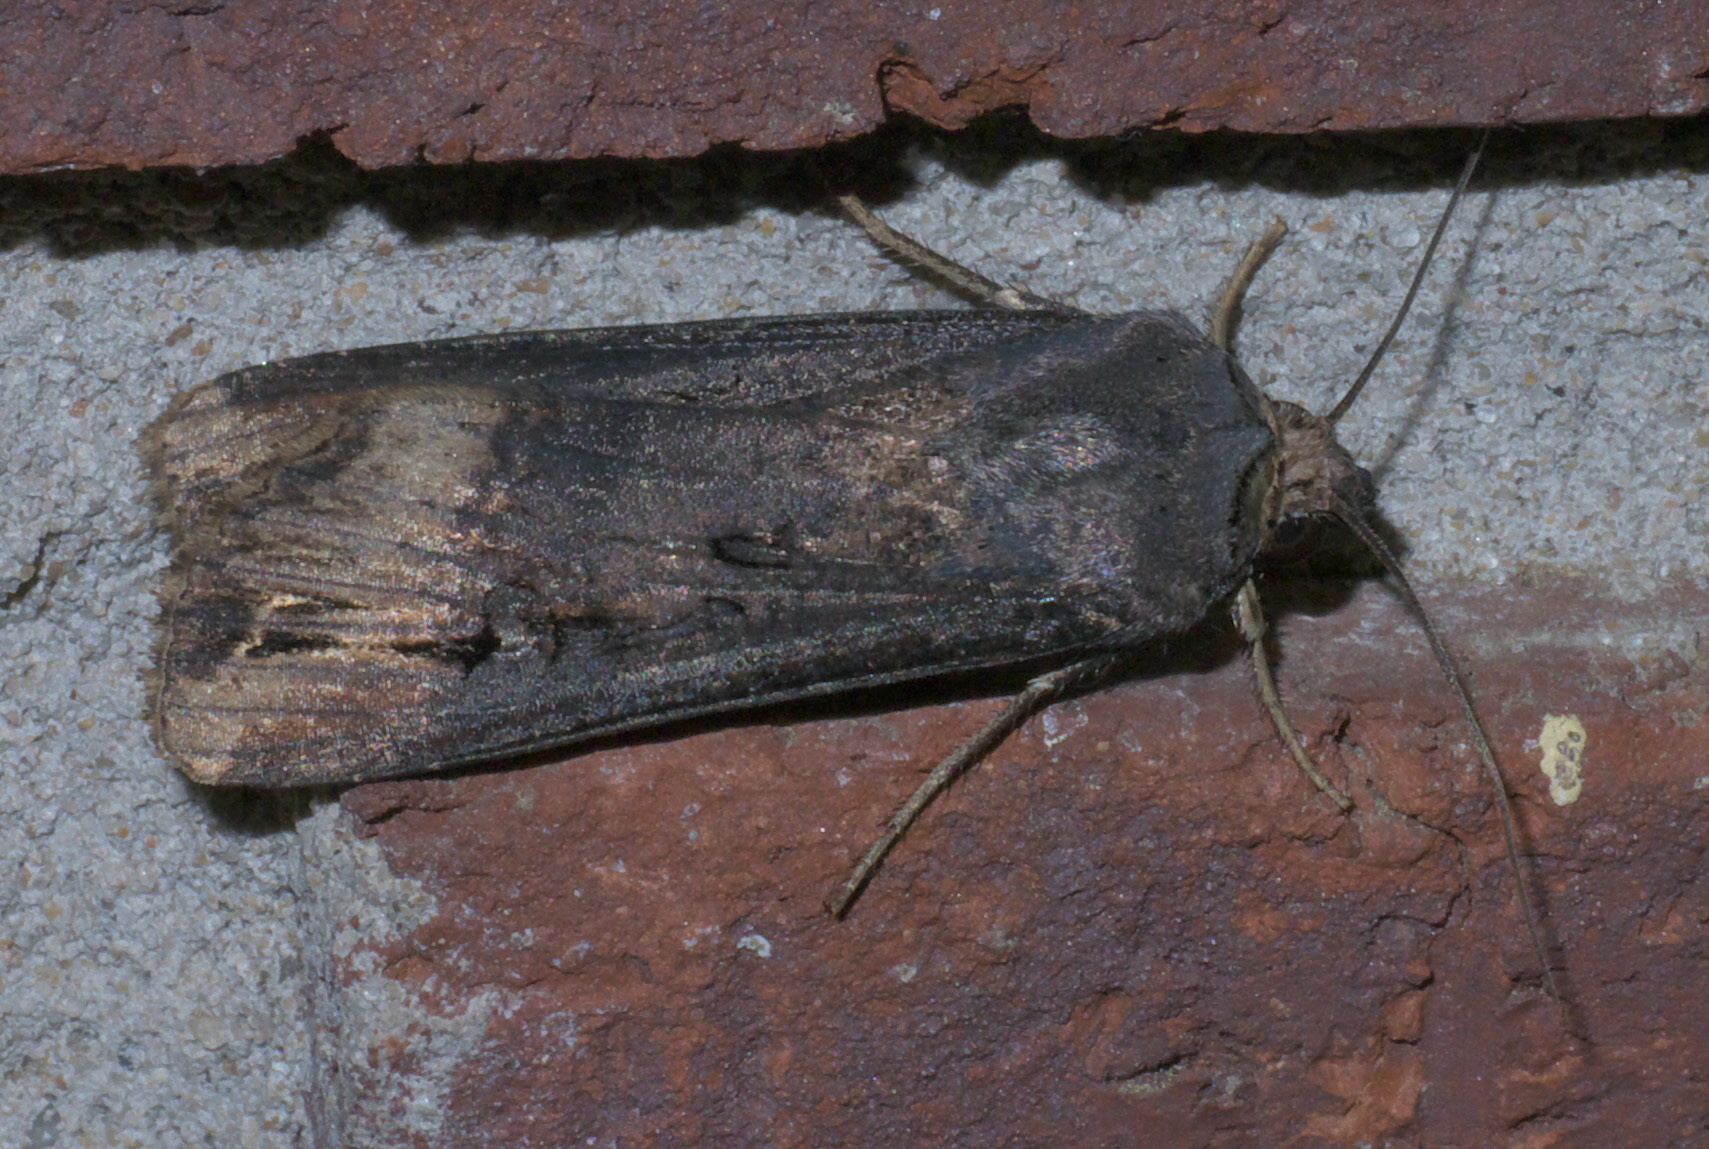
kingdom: Animalia
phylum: Arthropoda
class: Insecta
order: Lepidoptera
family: Noctuidae
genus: Agrotis
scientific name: Agrotis ipsilon
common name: Dark sword-grass
